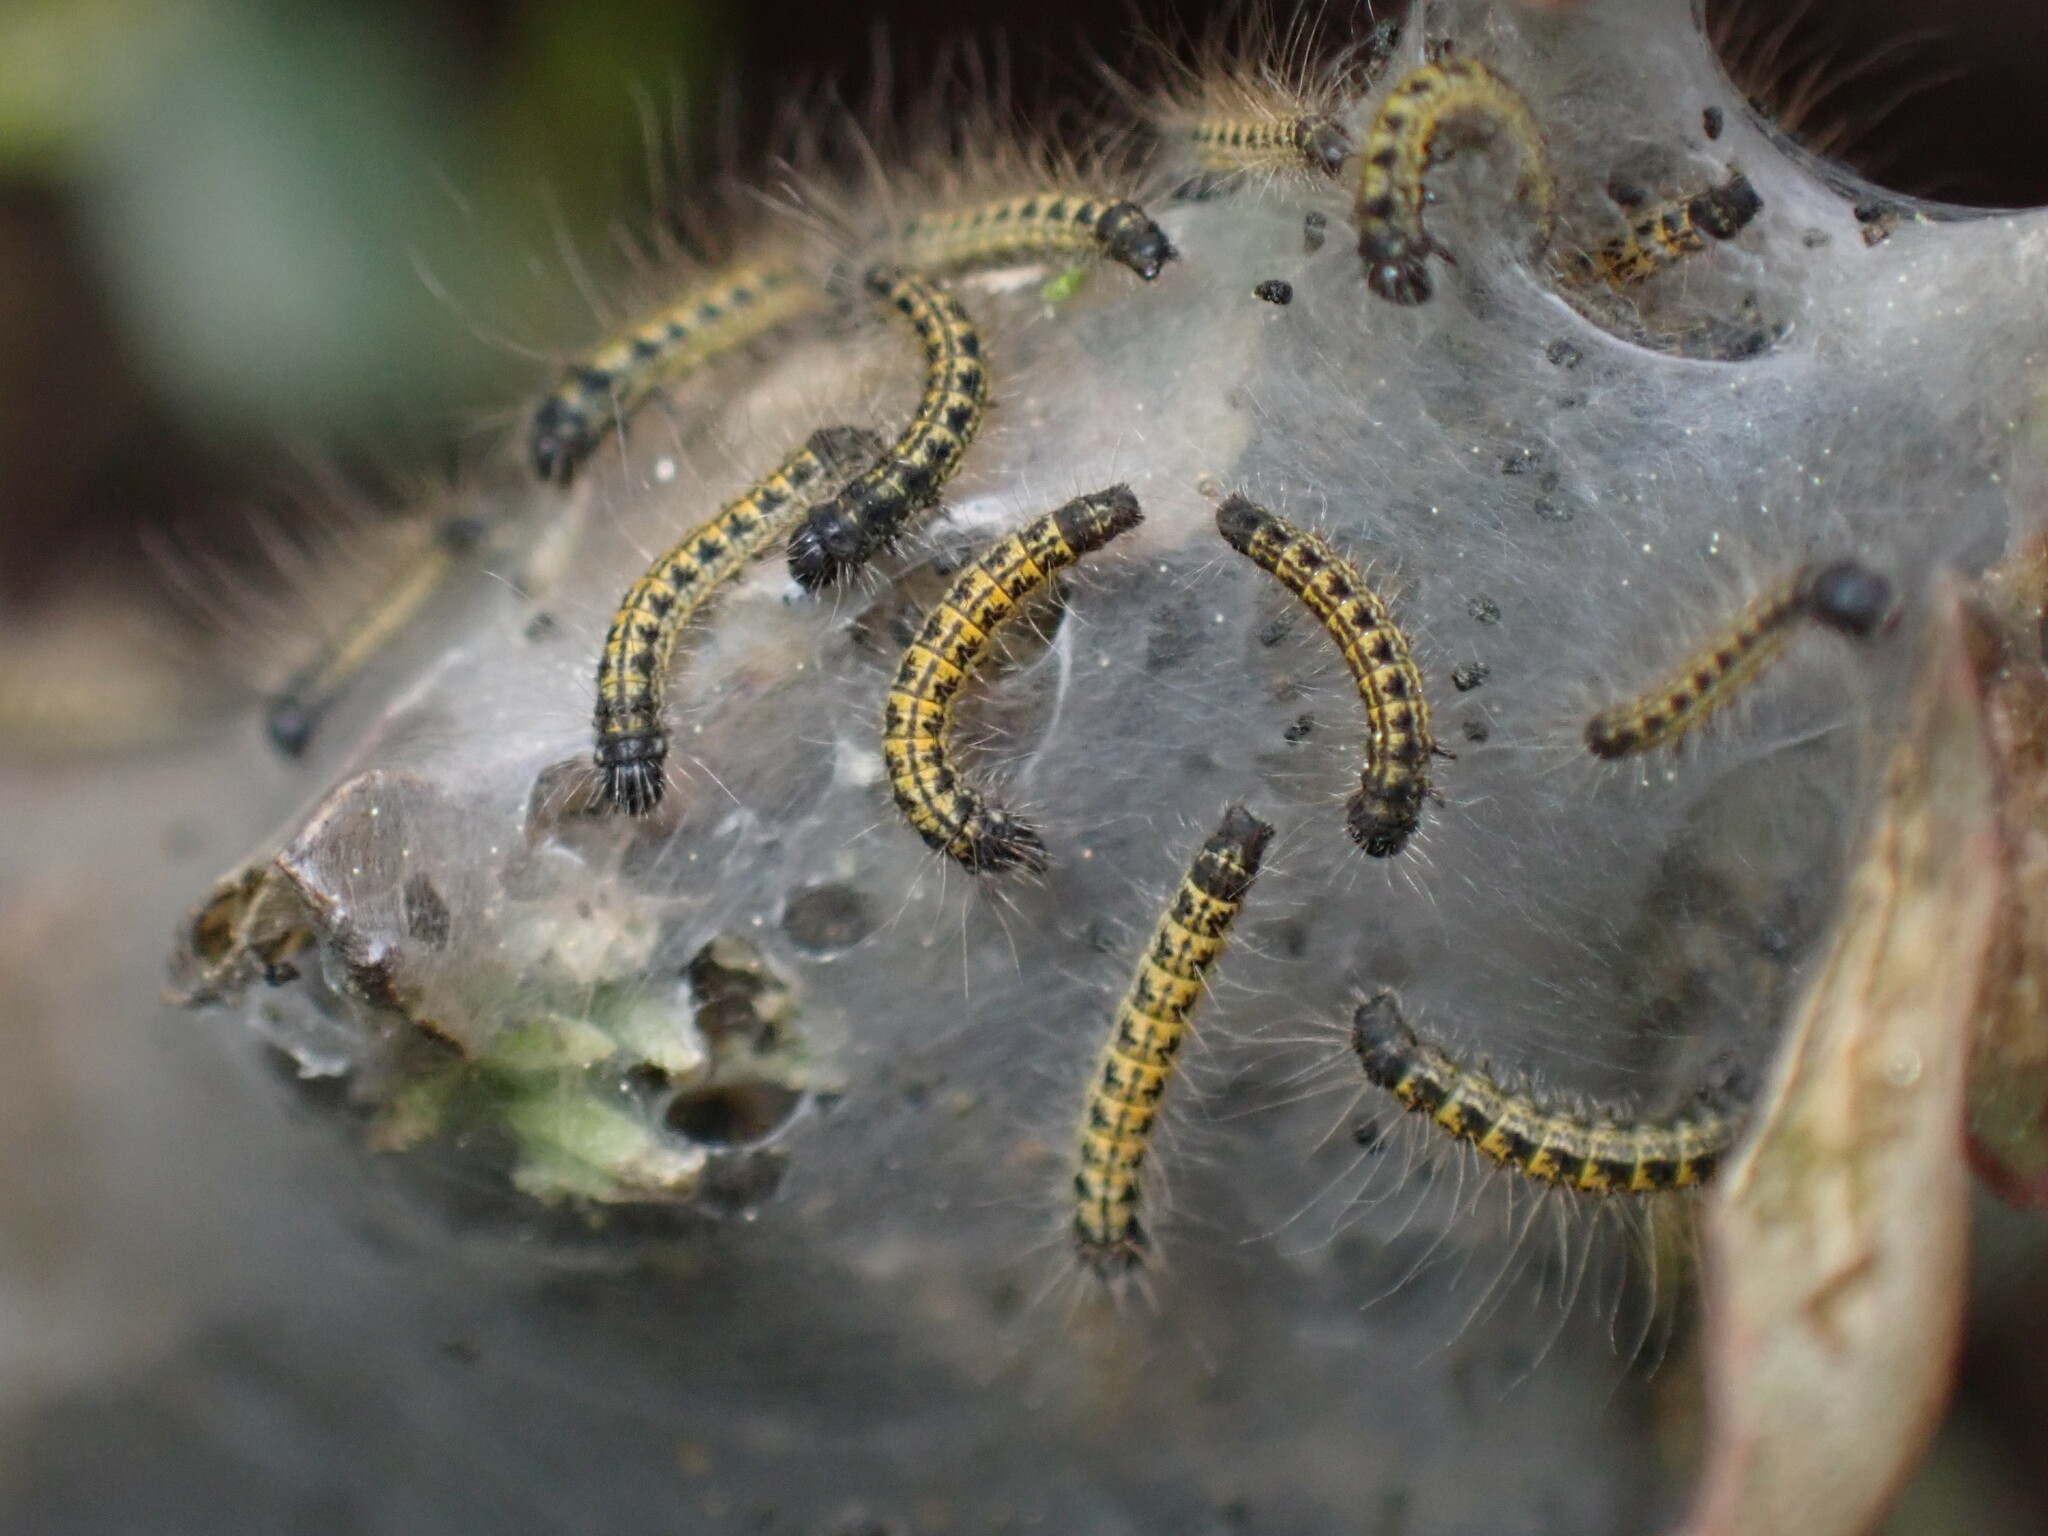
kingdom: Animalia
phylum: Arthropoda
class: Insecta
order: Lepidoptera
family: Lasiocampidae
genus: Malacosoma
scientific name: Malacosoma californica
